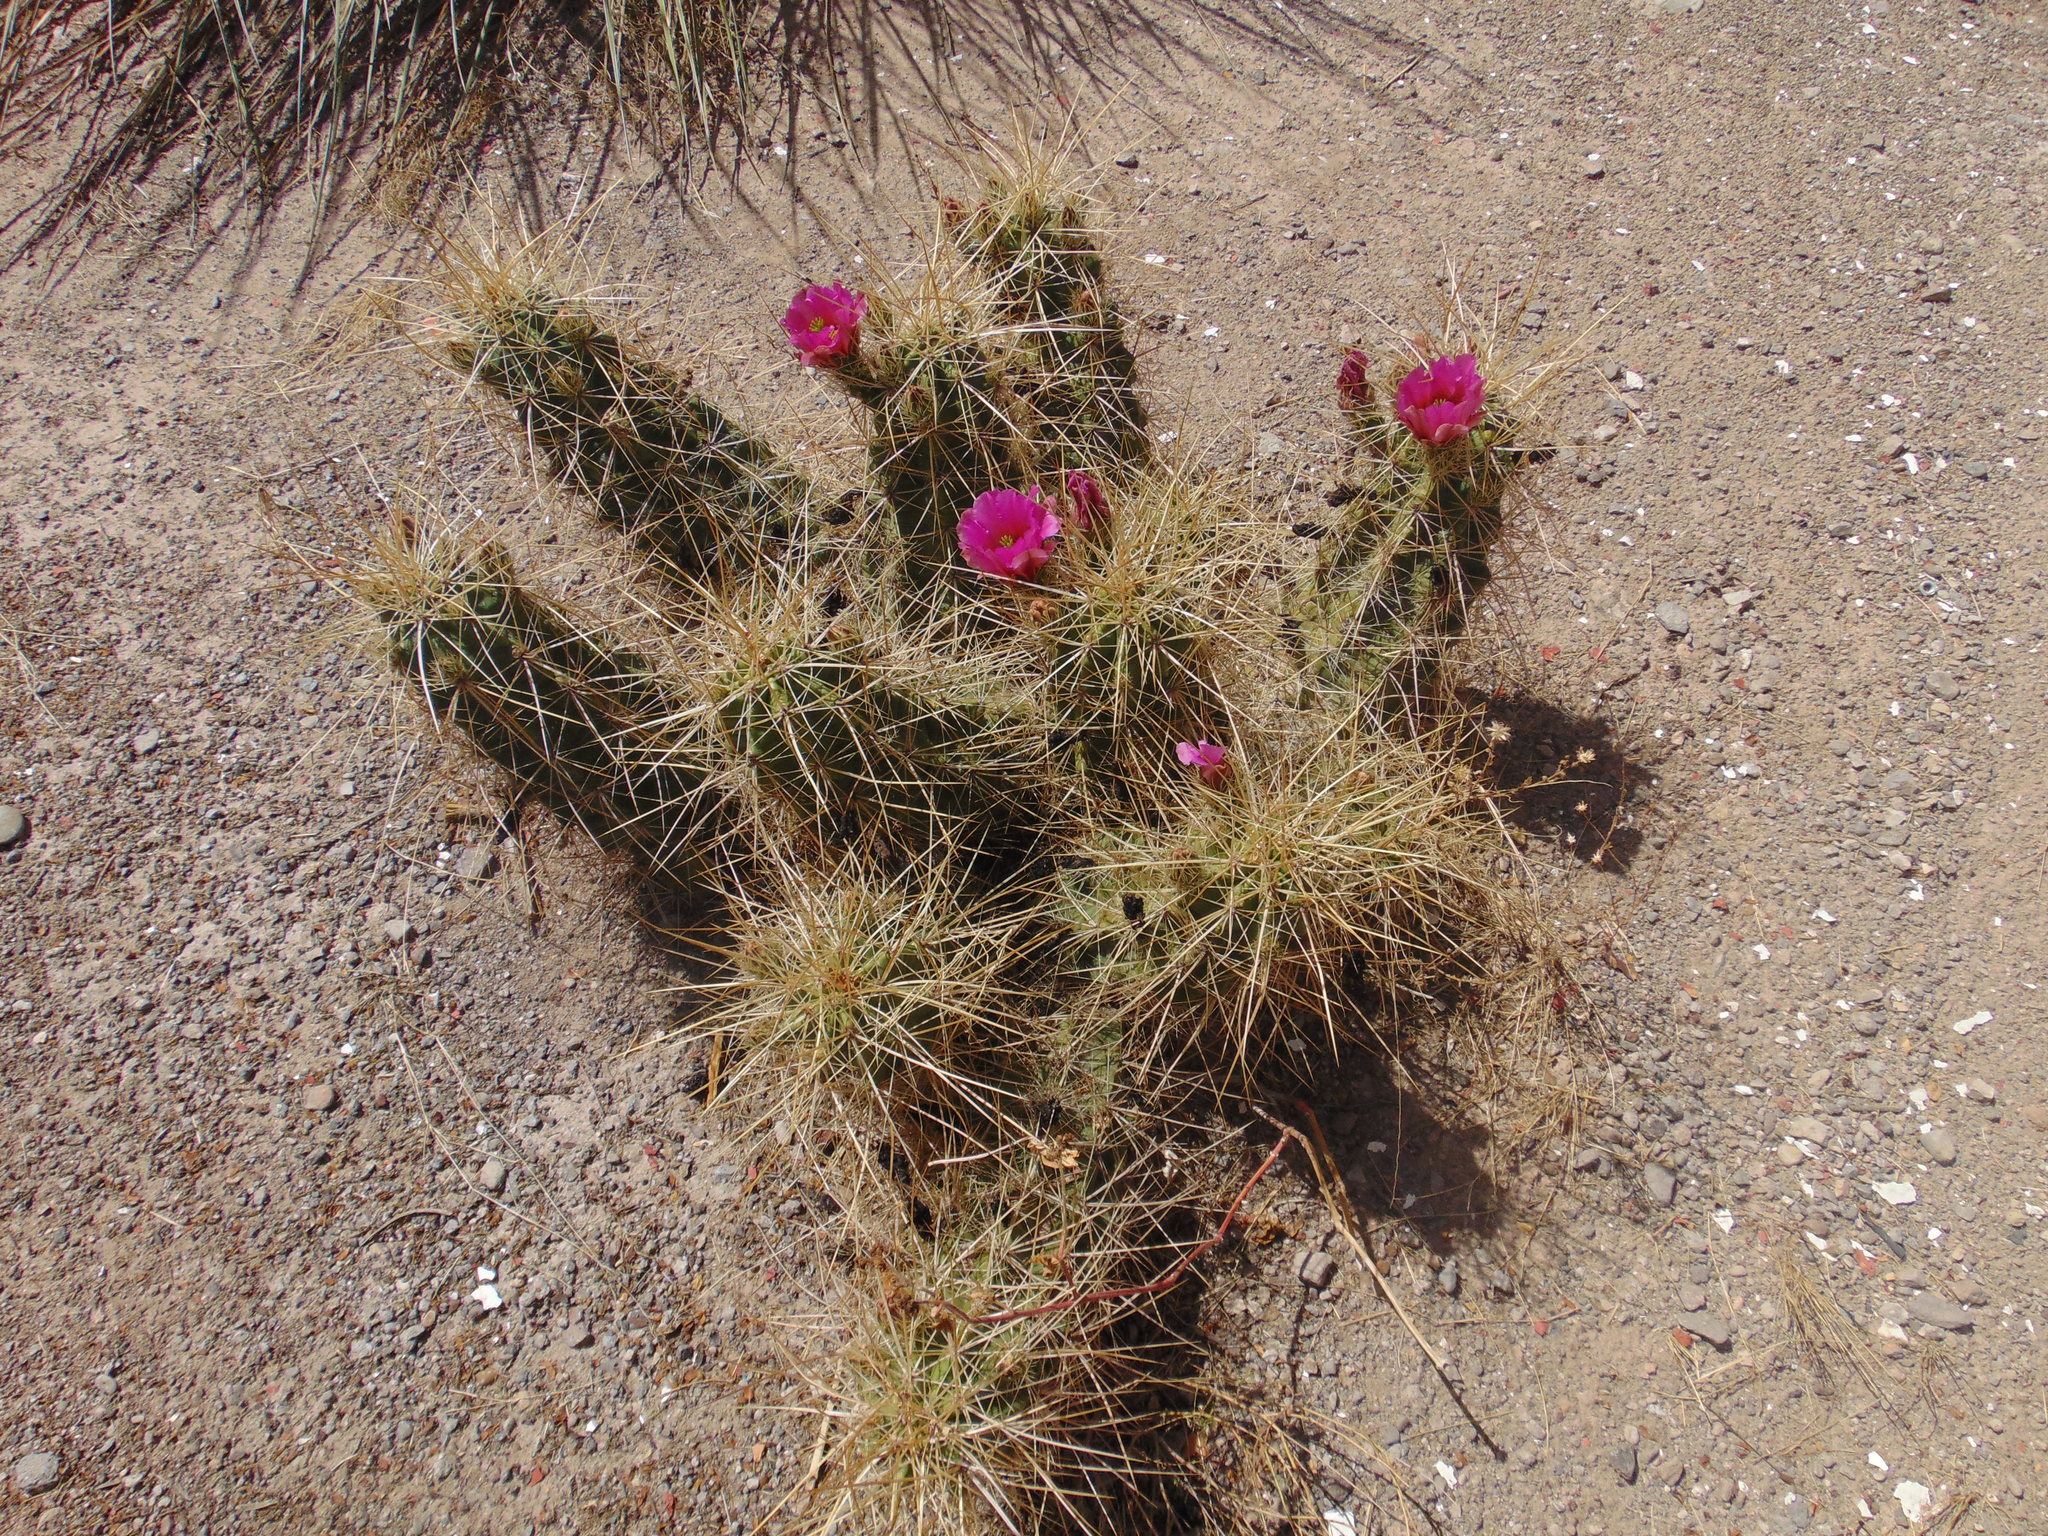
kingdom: Plantae
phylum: Tracheophyta
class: Magnoliopsida
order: Caryophyllales
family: Cactaceae
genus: Echinocereus
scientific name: Echinocereus enneacanthus
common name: Pitaya
